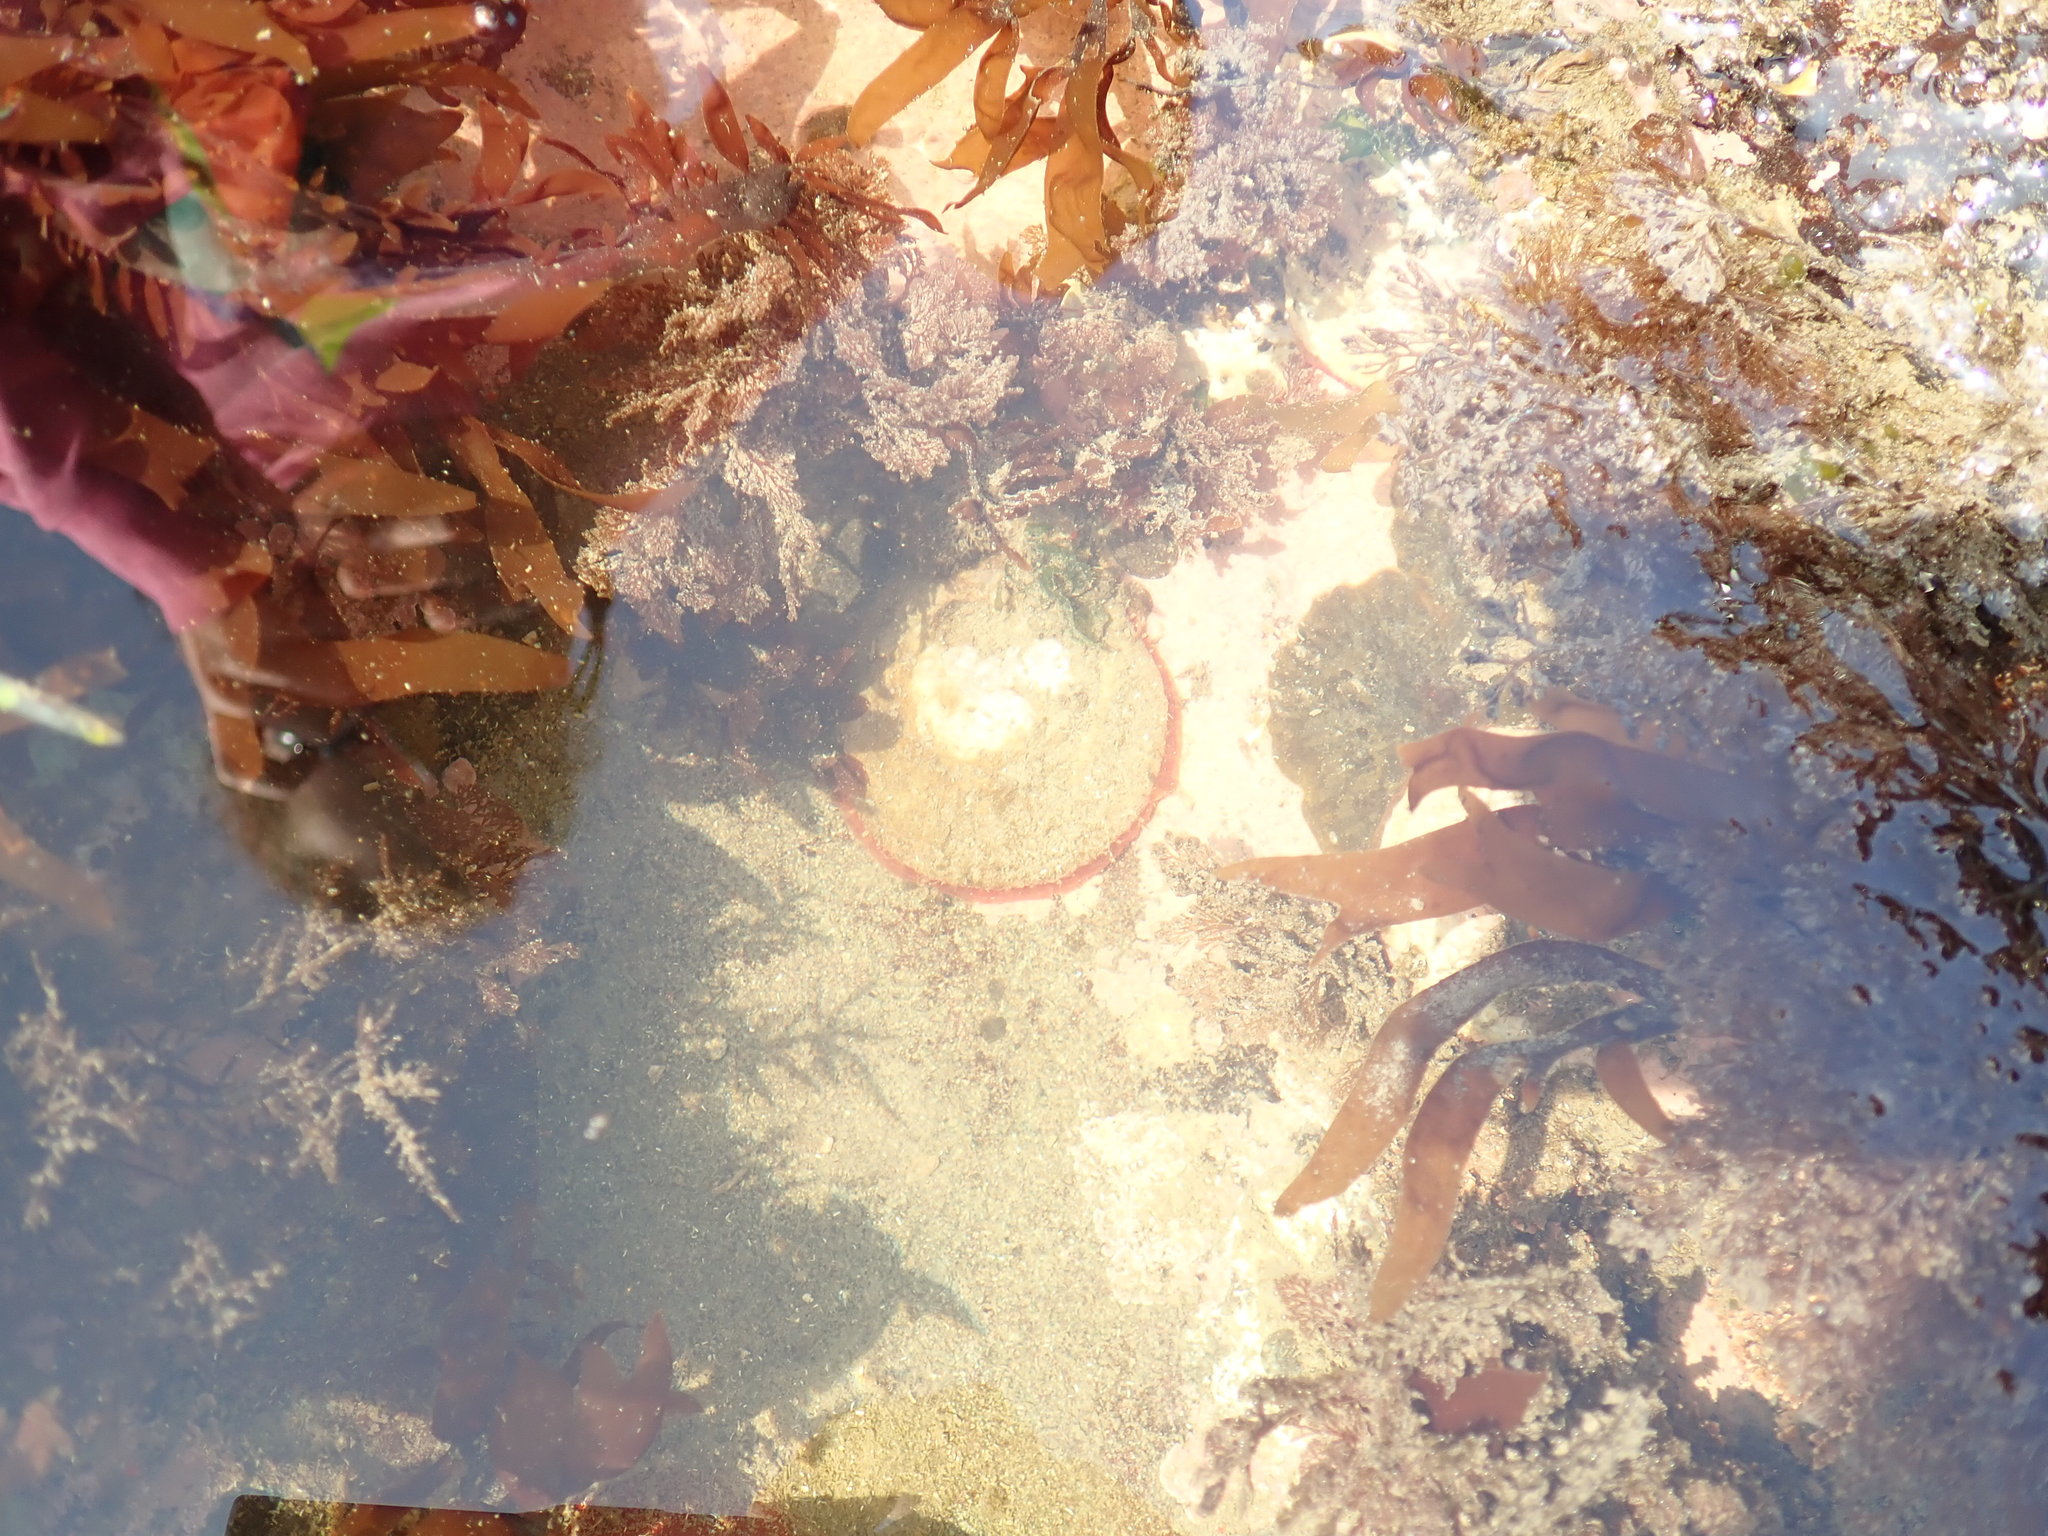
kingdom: Animalia
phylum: Mollusca
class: Bivalvia
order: Pectinida
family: Anomiidae
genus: Pododesmus
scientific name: Pododesmus macrochisma
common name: Alaska jingle
